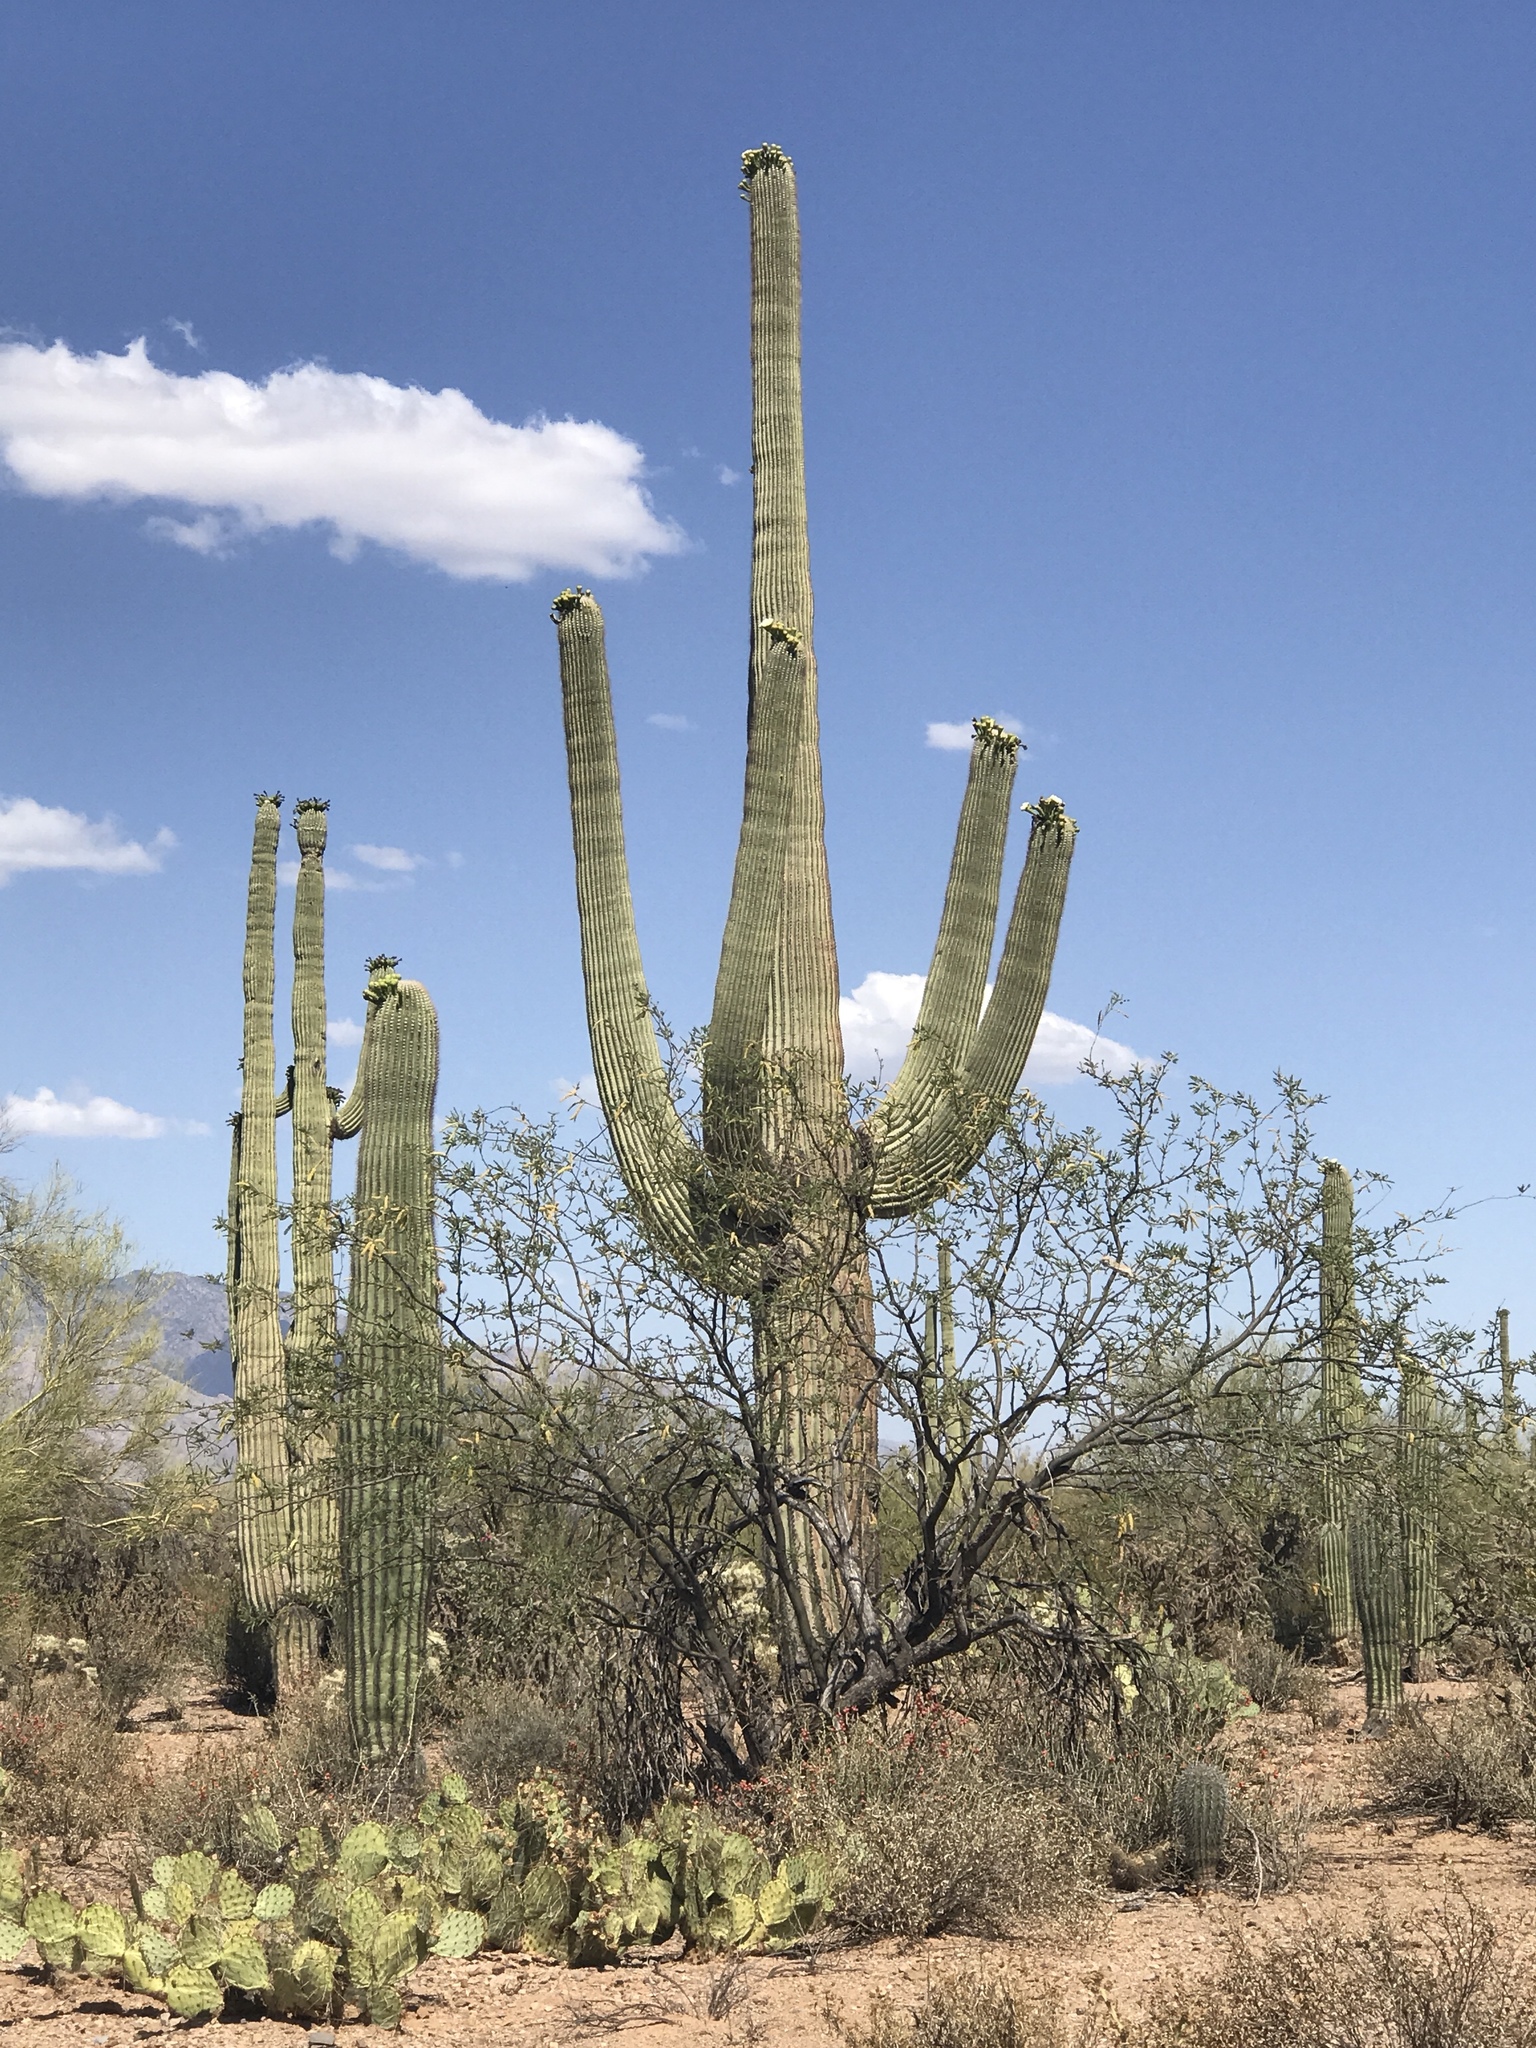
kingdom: Plantae
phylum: Tracheophyta
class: Magnoliopsida
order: Caryophyllales
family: Cactaceae
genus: Carnegiea
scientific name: Carnegiea gigantea
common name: Saguaro
